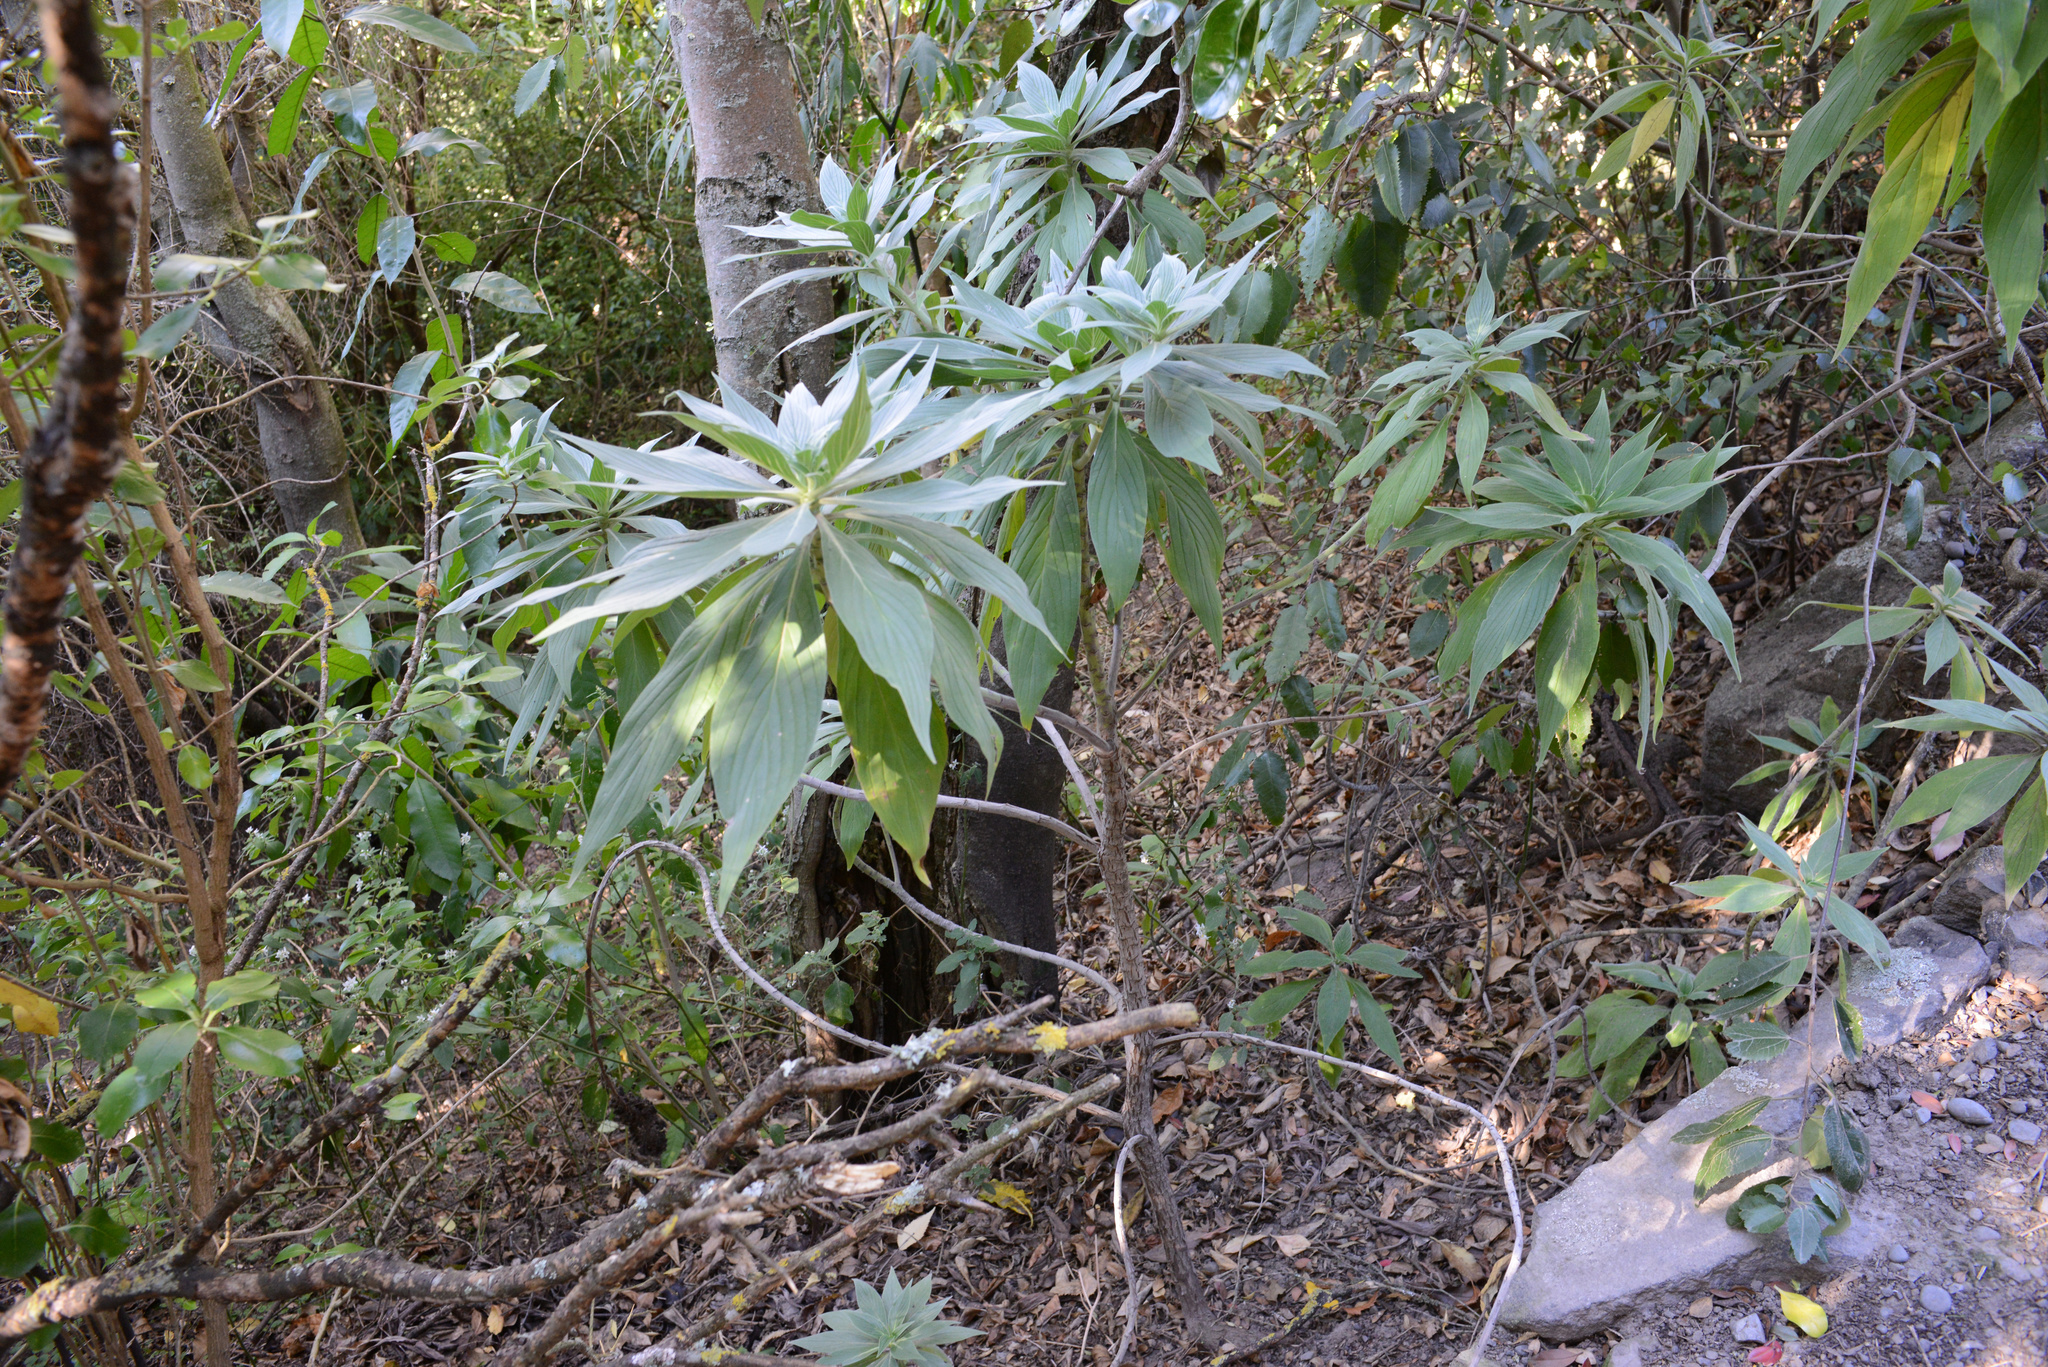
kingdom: Plantae
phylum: Tracheophyta
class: Magnoliopsida
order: Boraginales
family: Boraginaceae
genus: Echium
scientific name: Echium candicans
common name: Pride of madeira
